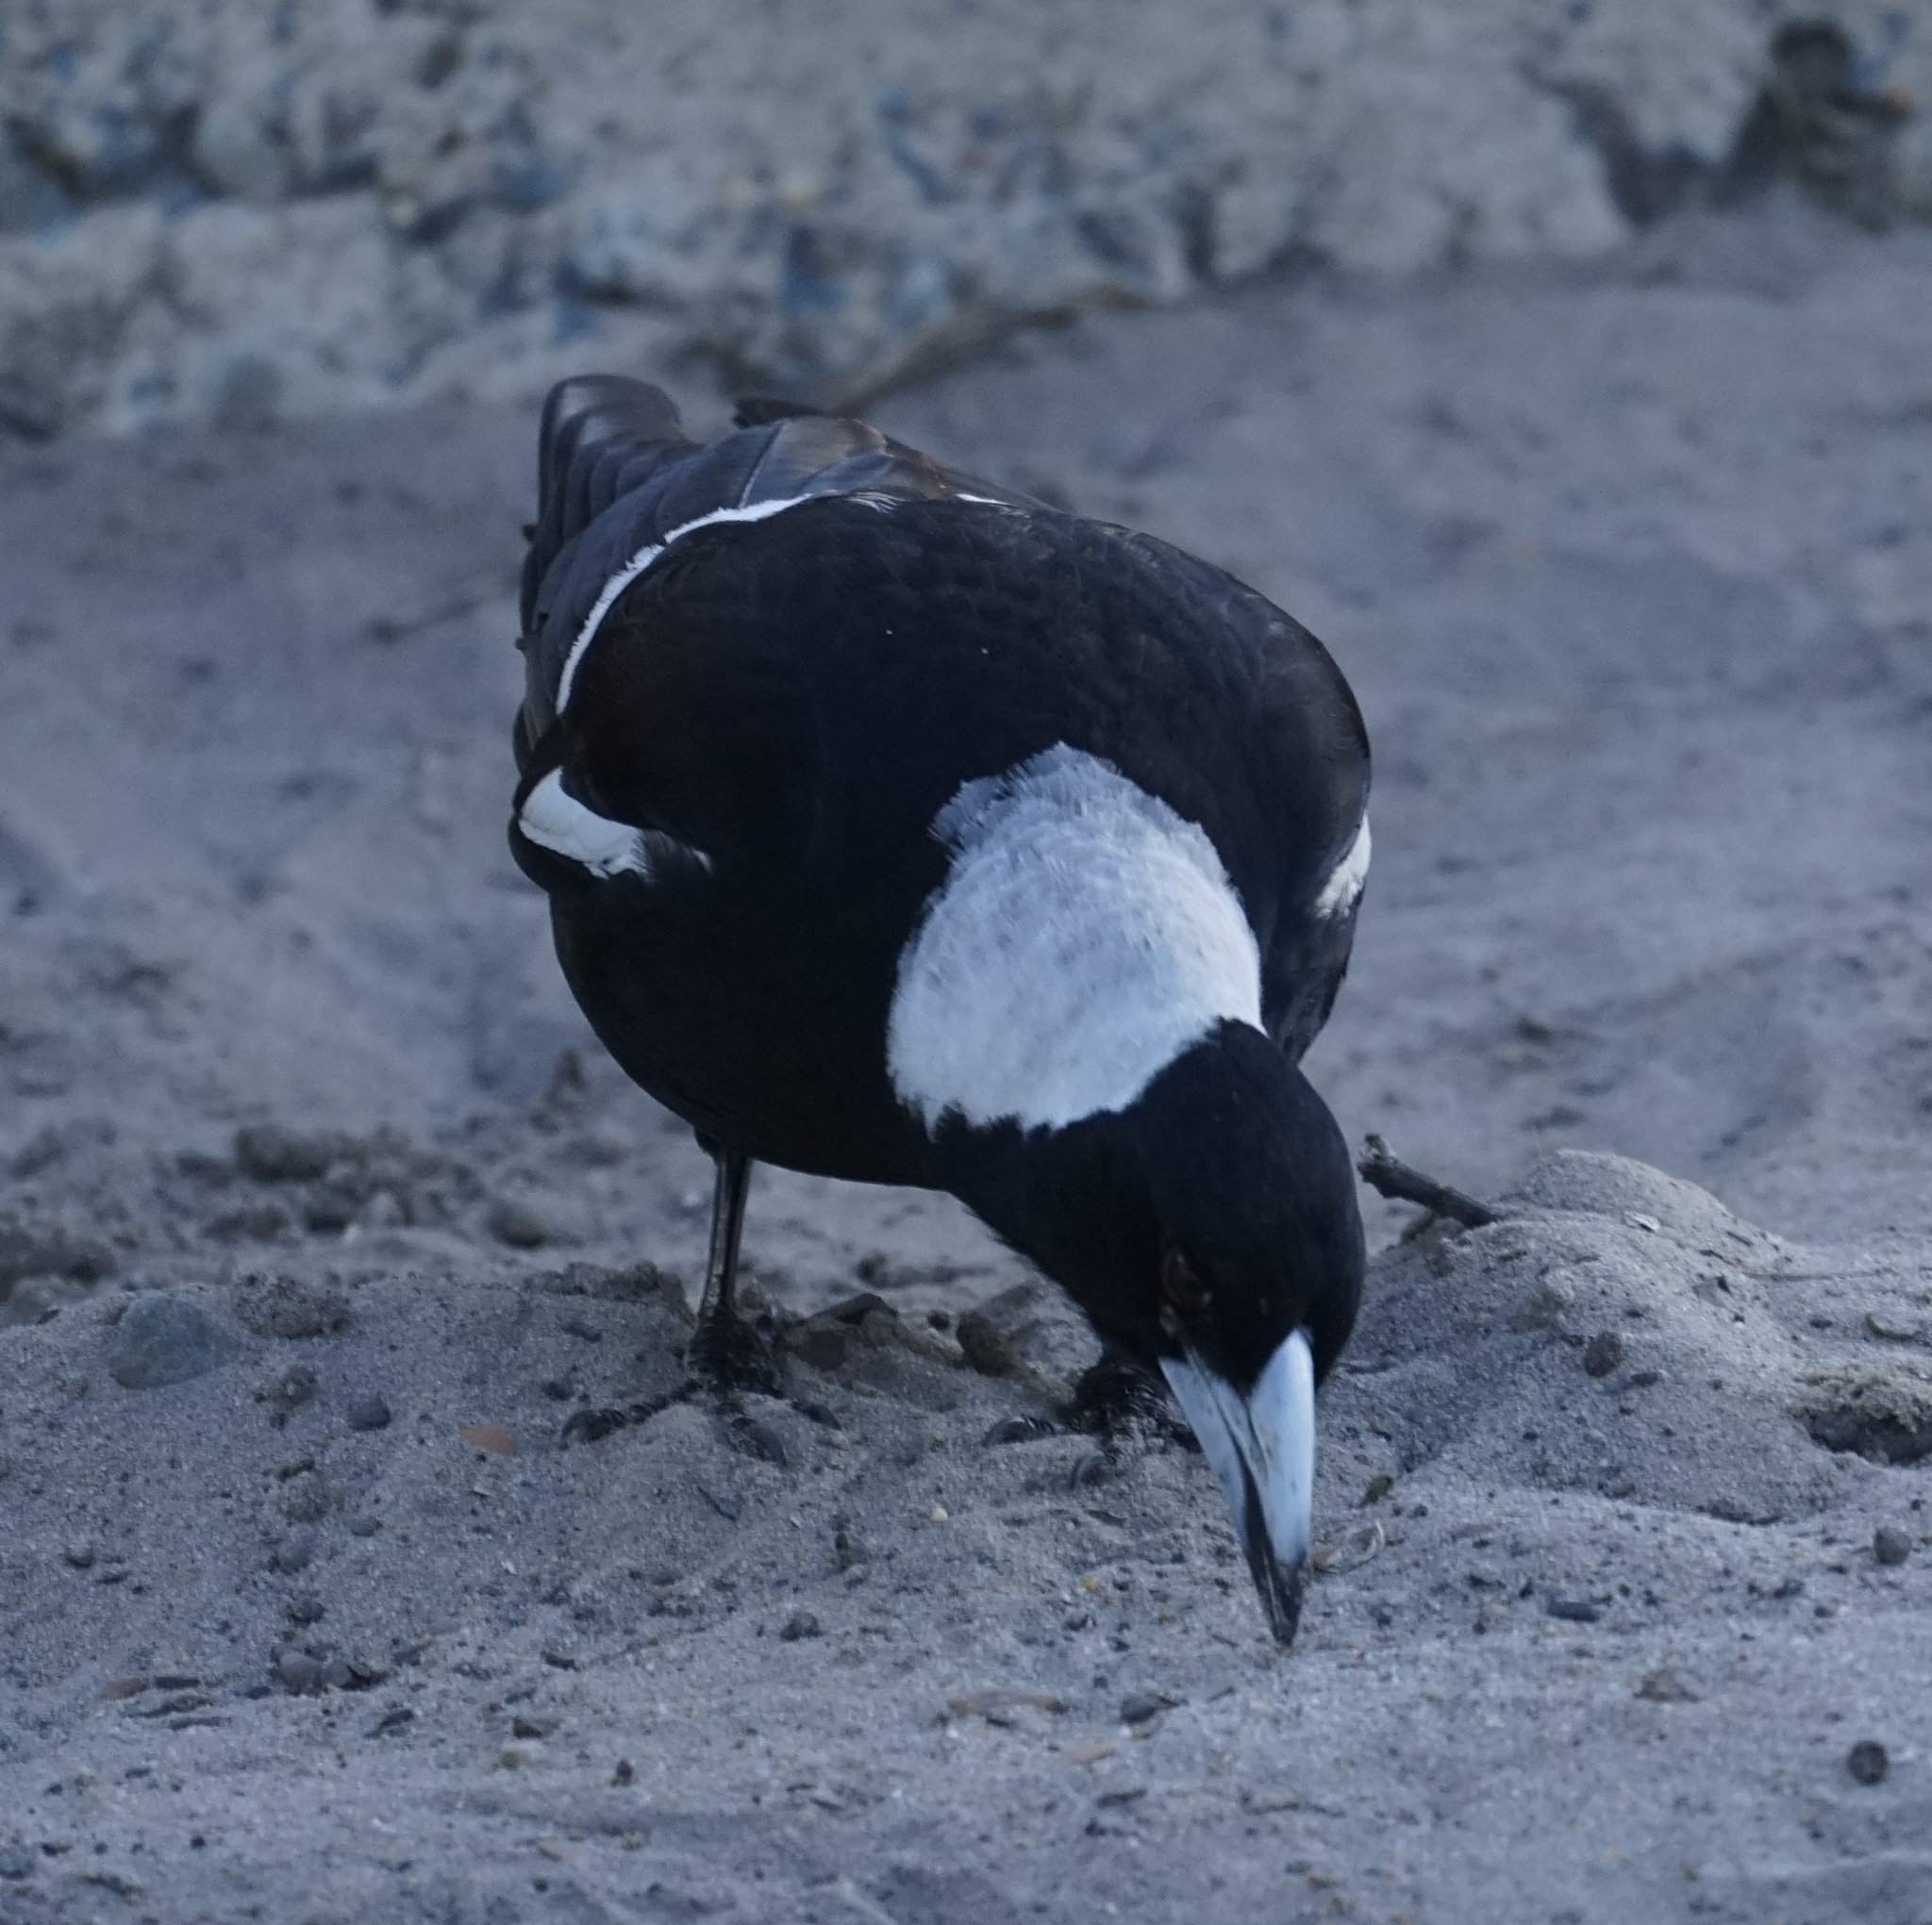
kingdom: Animalia
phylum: Chordata
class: Aves
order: Passeriformes
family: Cracticidae
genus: Gymnorhina
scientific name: Gymnorhina tibicen
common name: Australian magpie
